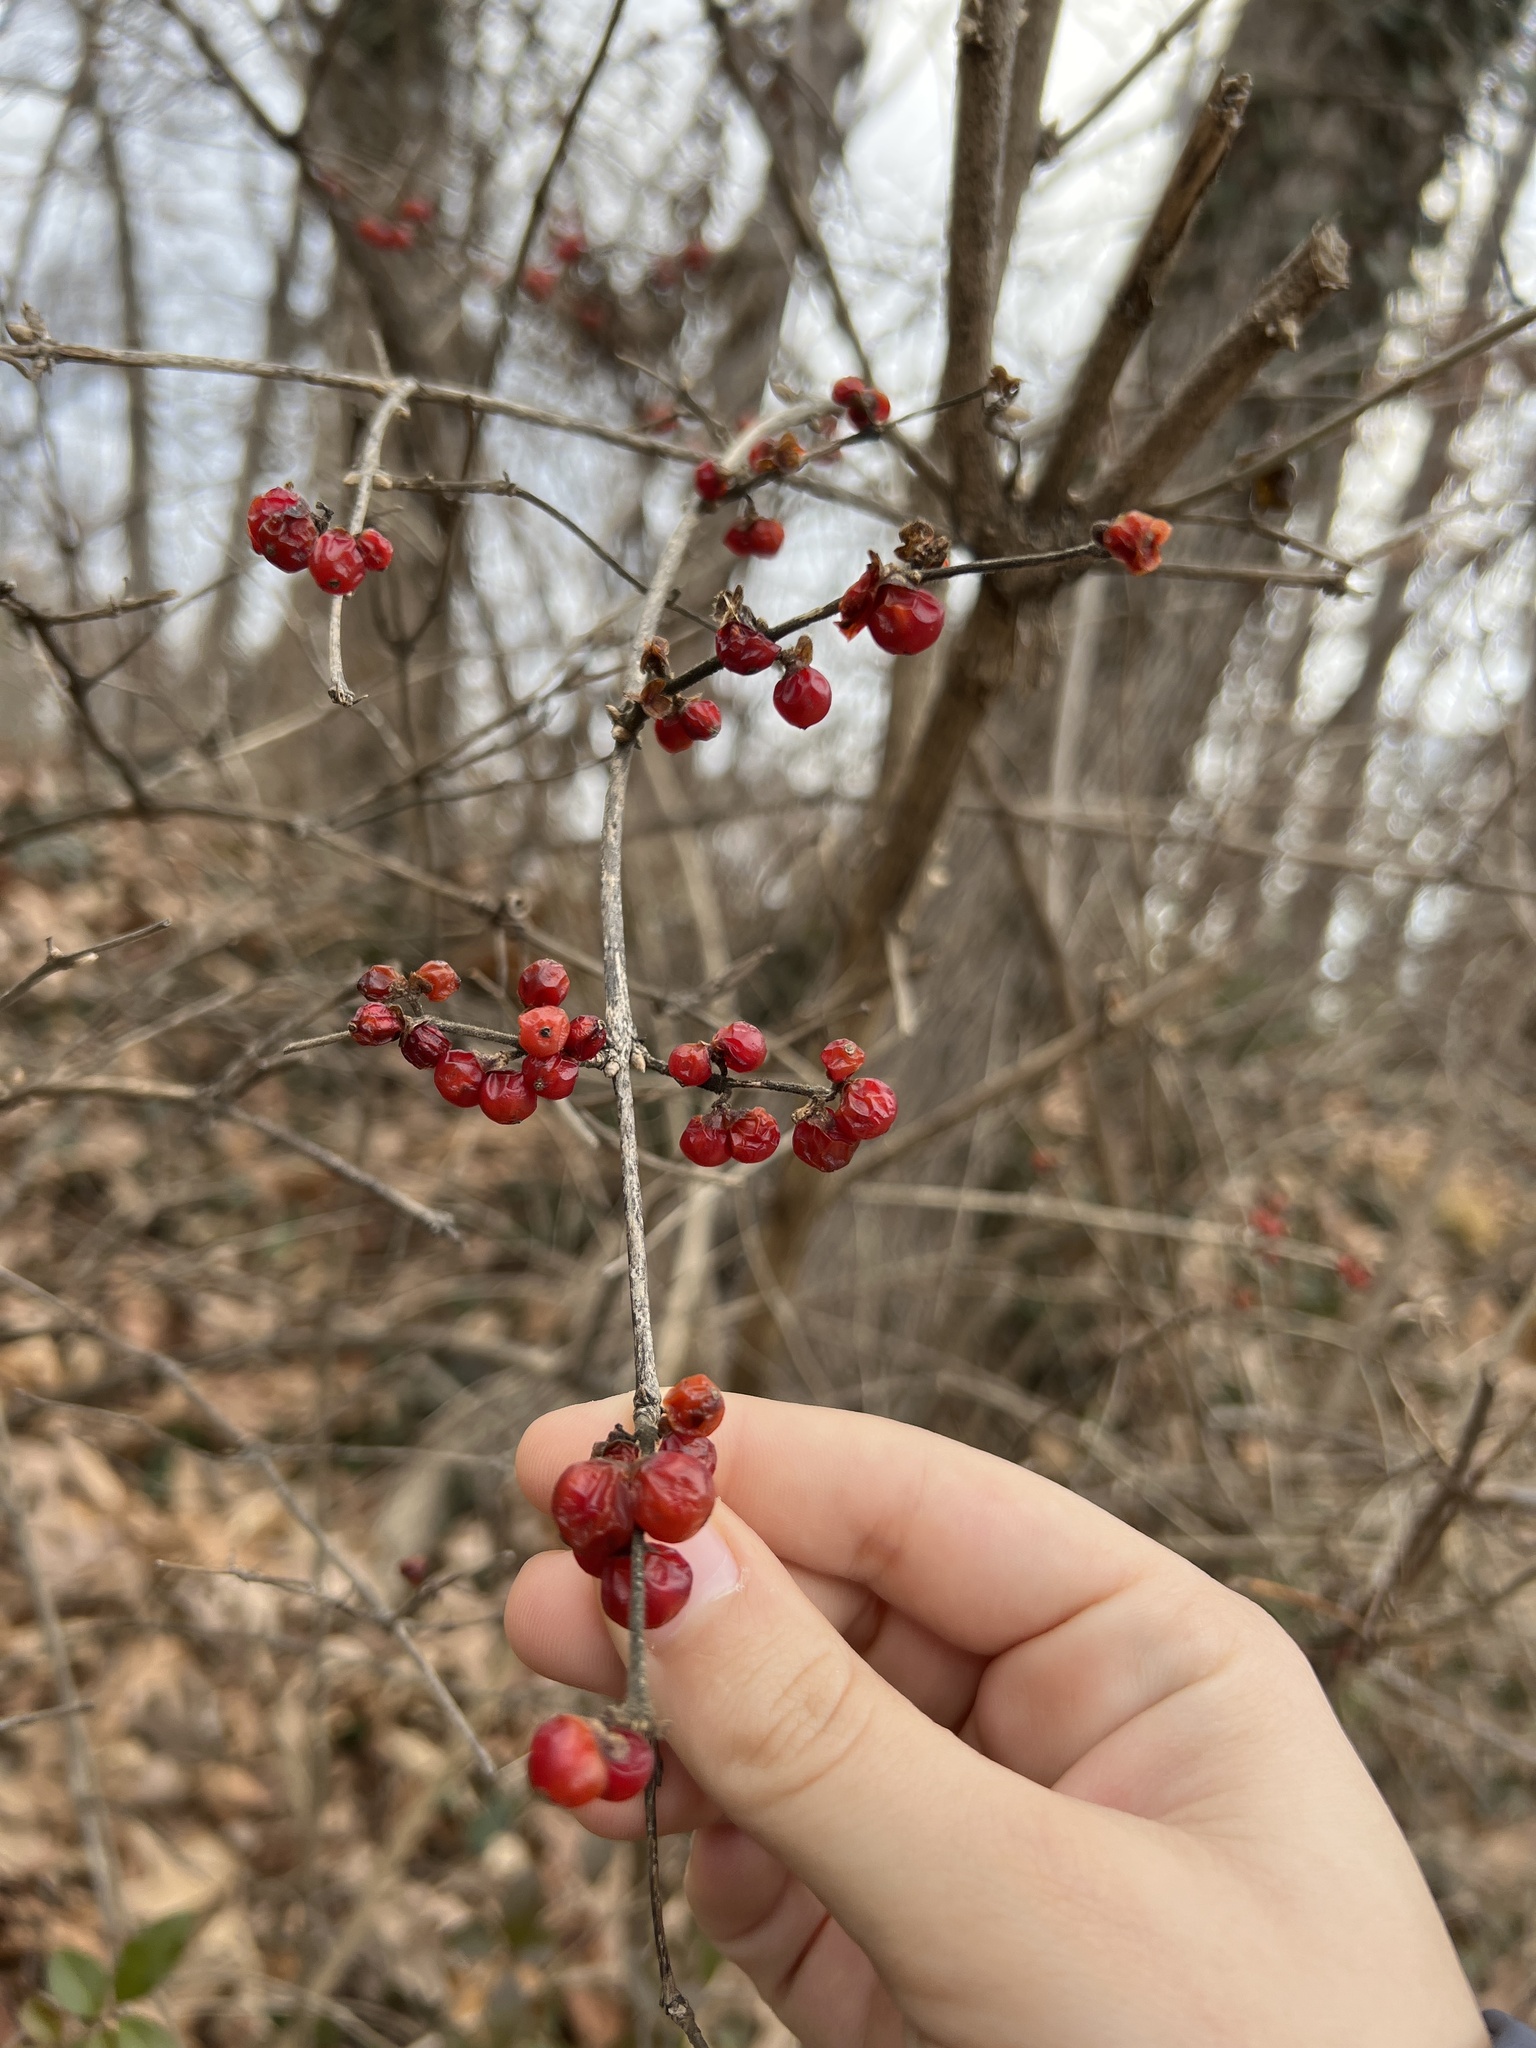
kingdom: Plantae
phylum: Tracheophyta
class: Magnoliopsida
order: Dipsacales
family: Caprifoliaceae
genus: Lonicera
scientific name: Lonicera maackii
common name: Amur honeysuckle
